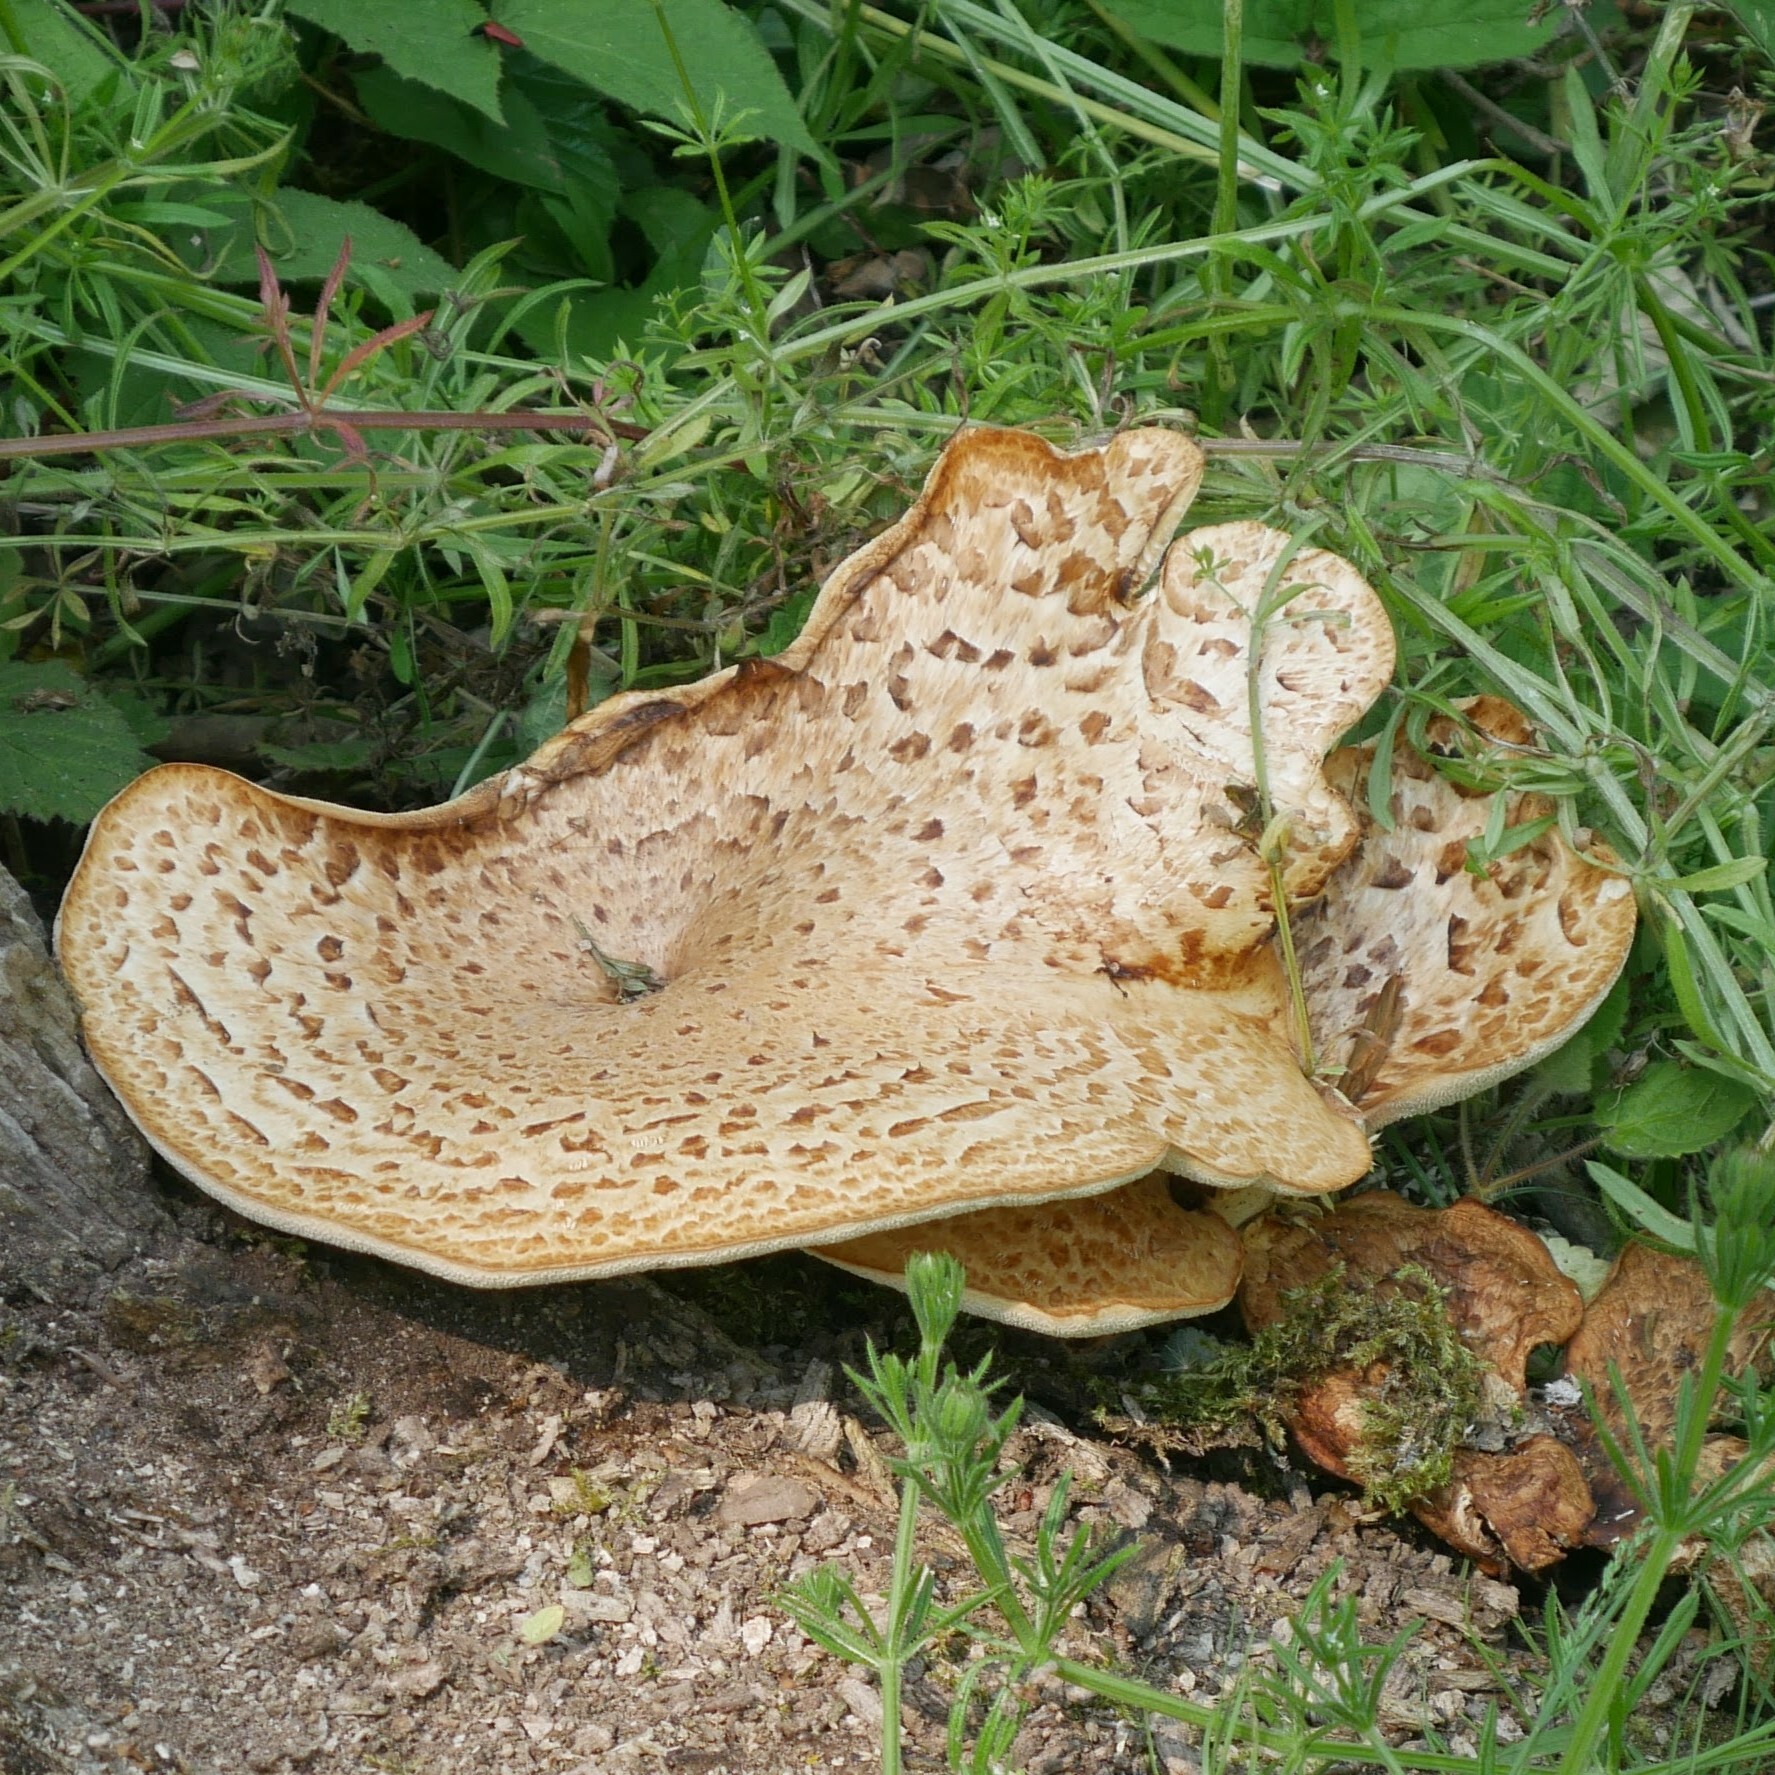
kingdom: Fungi
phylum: Basidiomycota
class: Agaricomycetes
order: Polyporales
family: Polyporaceae
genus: Cerioporus
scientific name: Cerioporus squamosus
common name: Dryad's saddle
